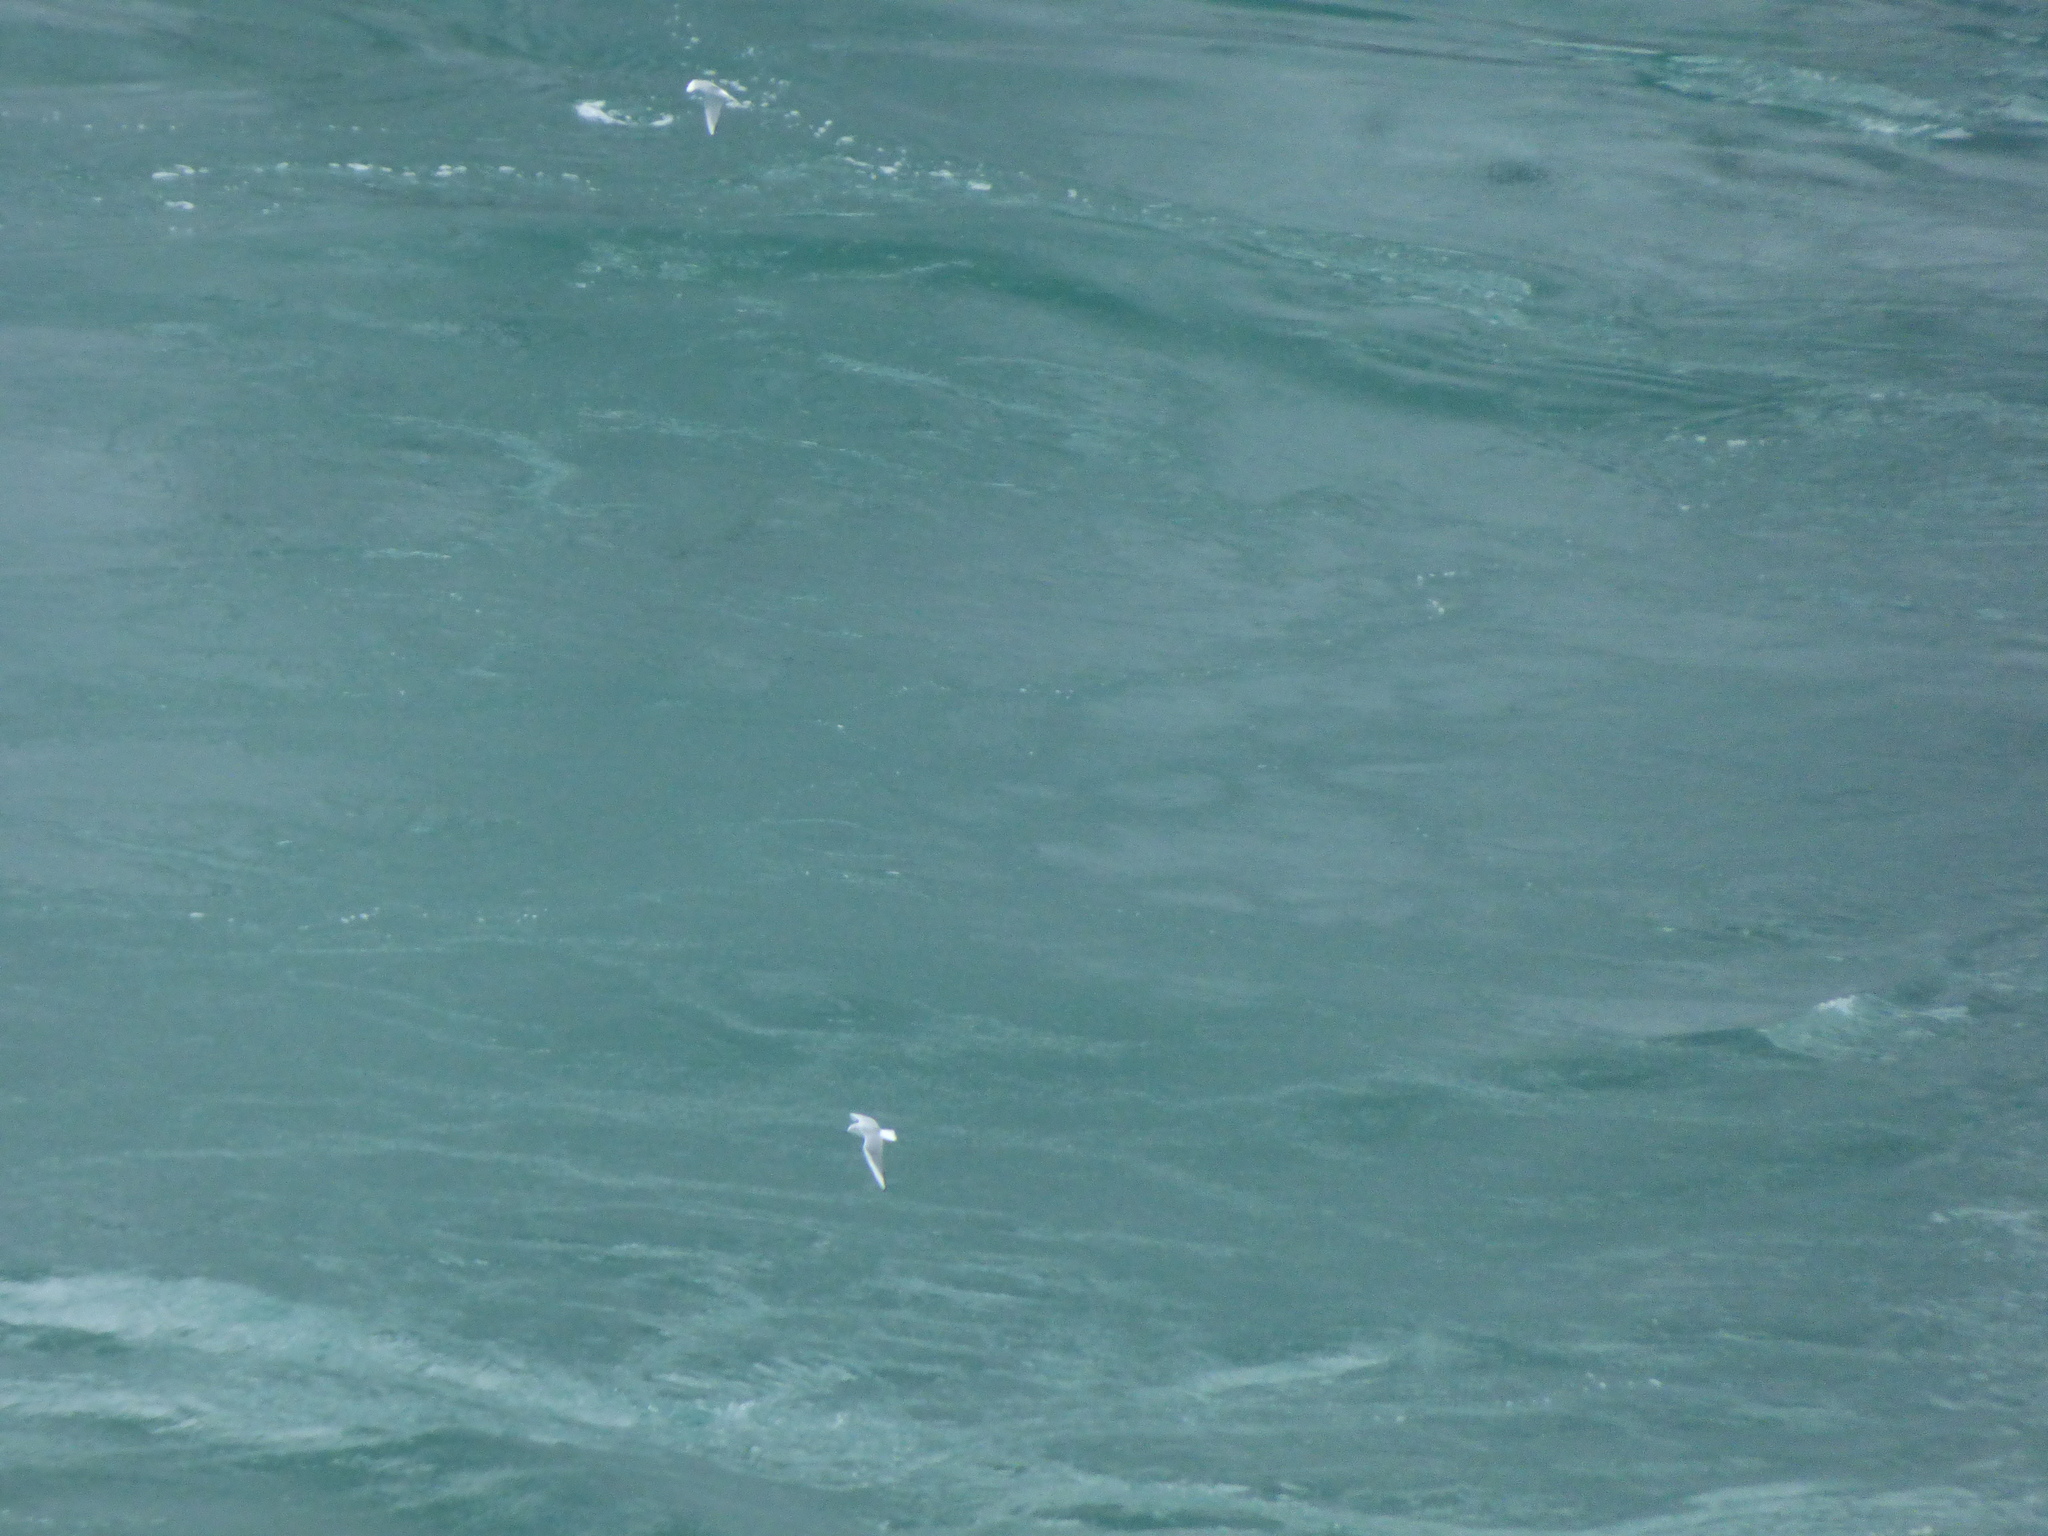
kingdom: Animalia
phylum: Chordata
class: Aves
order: Charadriiformes
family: Laridae
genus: Chroicocephalus
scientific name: Chroicocephalus philadelphia
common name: Bonaparte's gull
